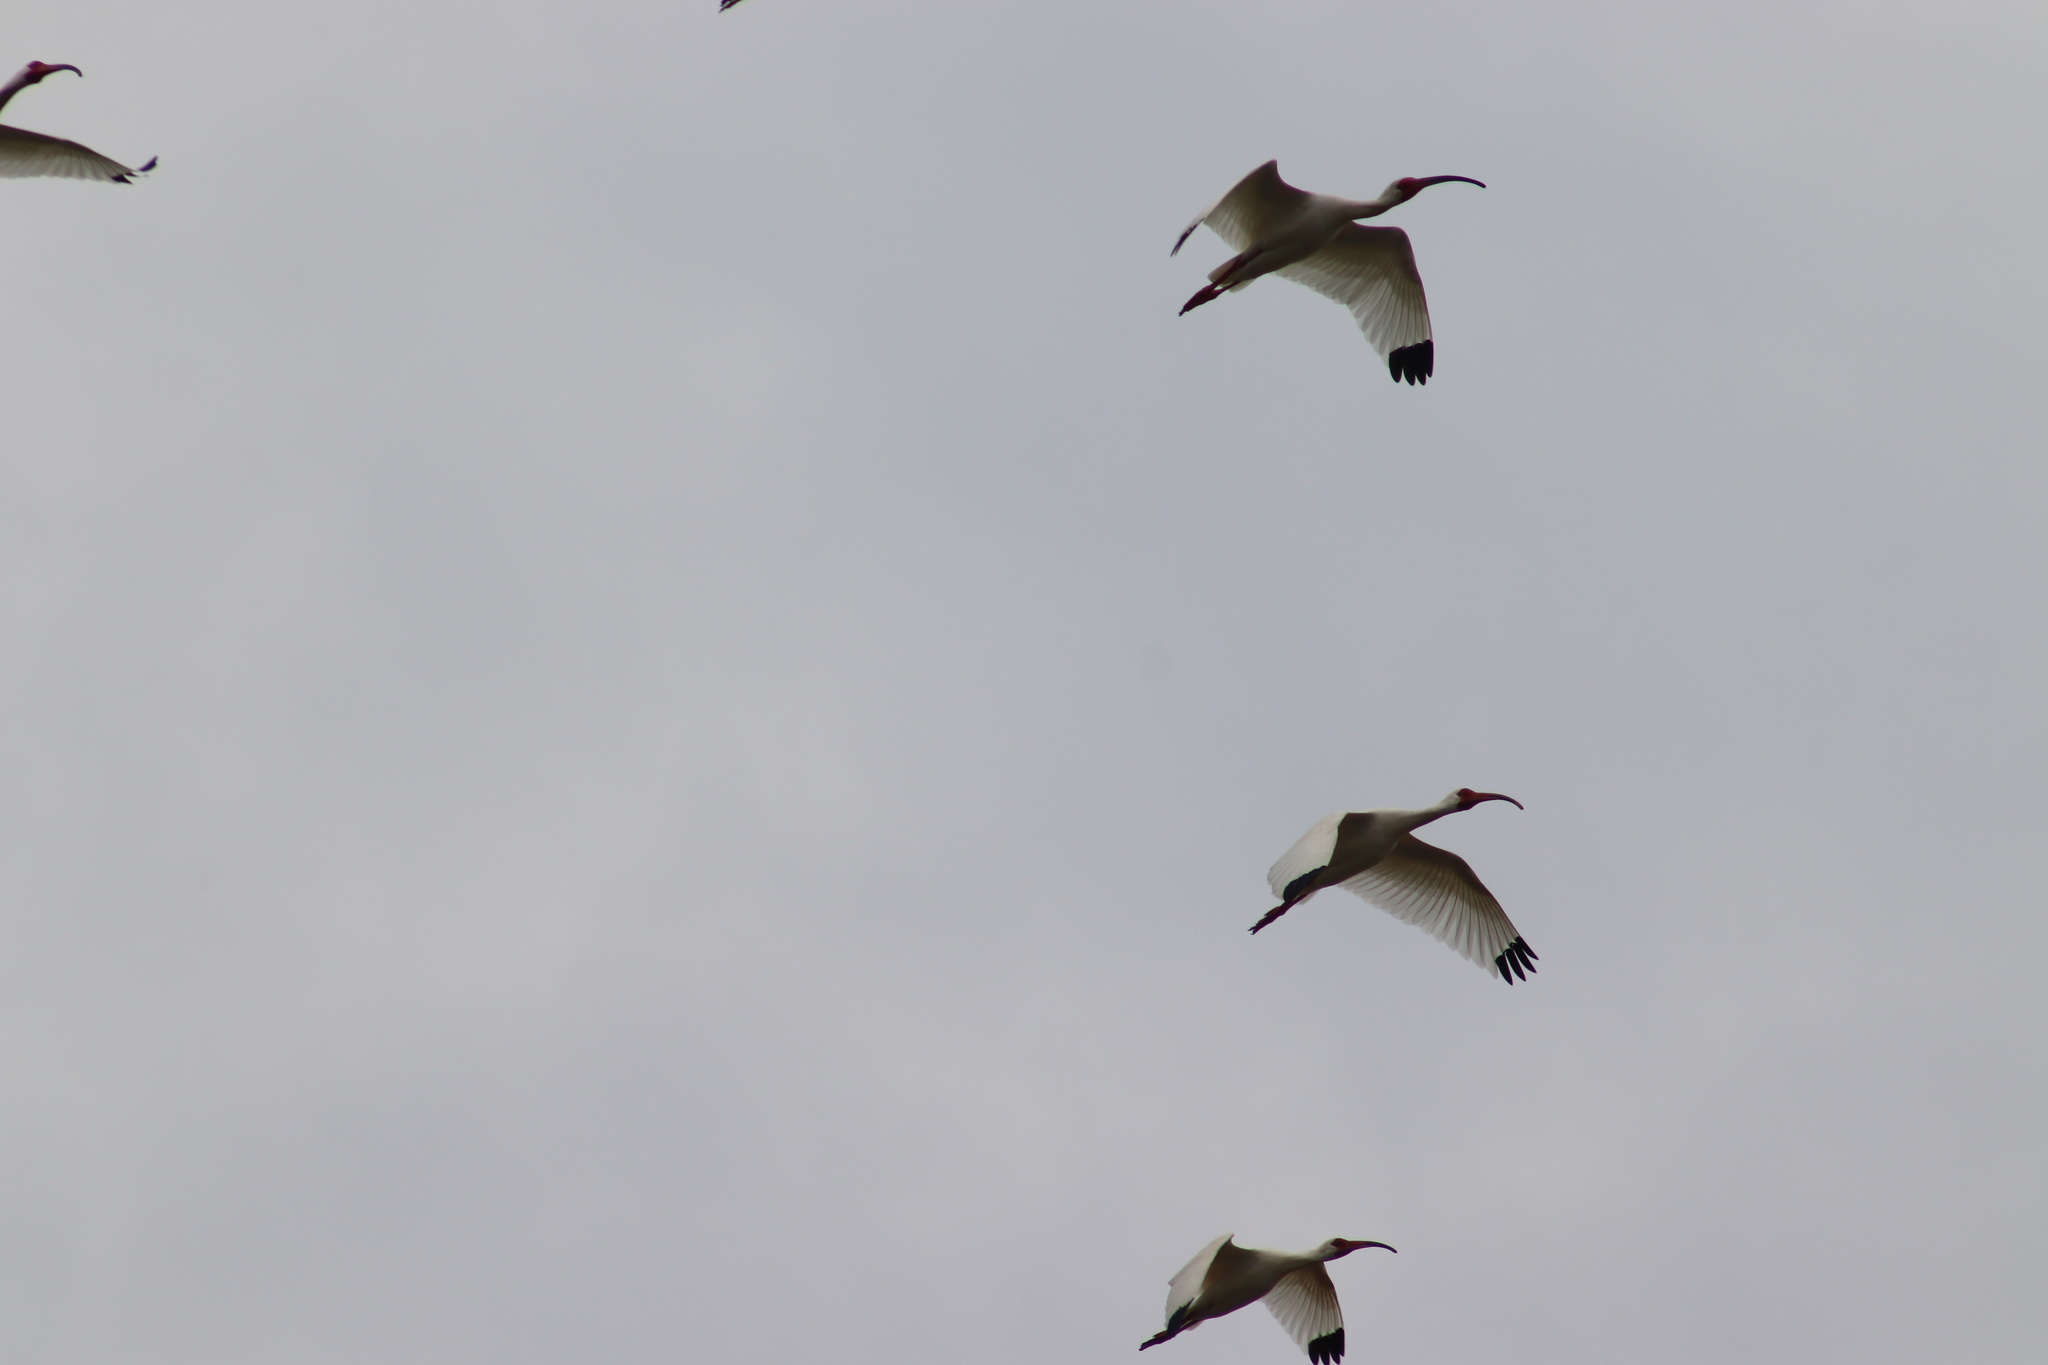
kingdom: Animalia
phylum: Chordata
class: Aves
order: Pelecaniformes
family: Threskiornithidae
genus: Eudocimus
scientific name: Eudocimus albus
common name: White ibis
